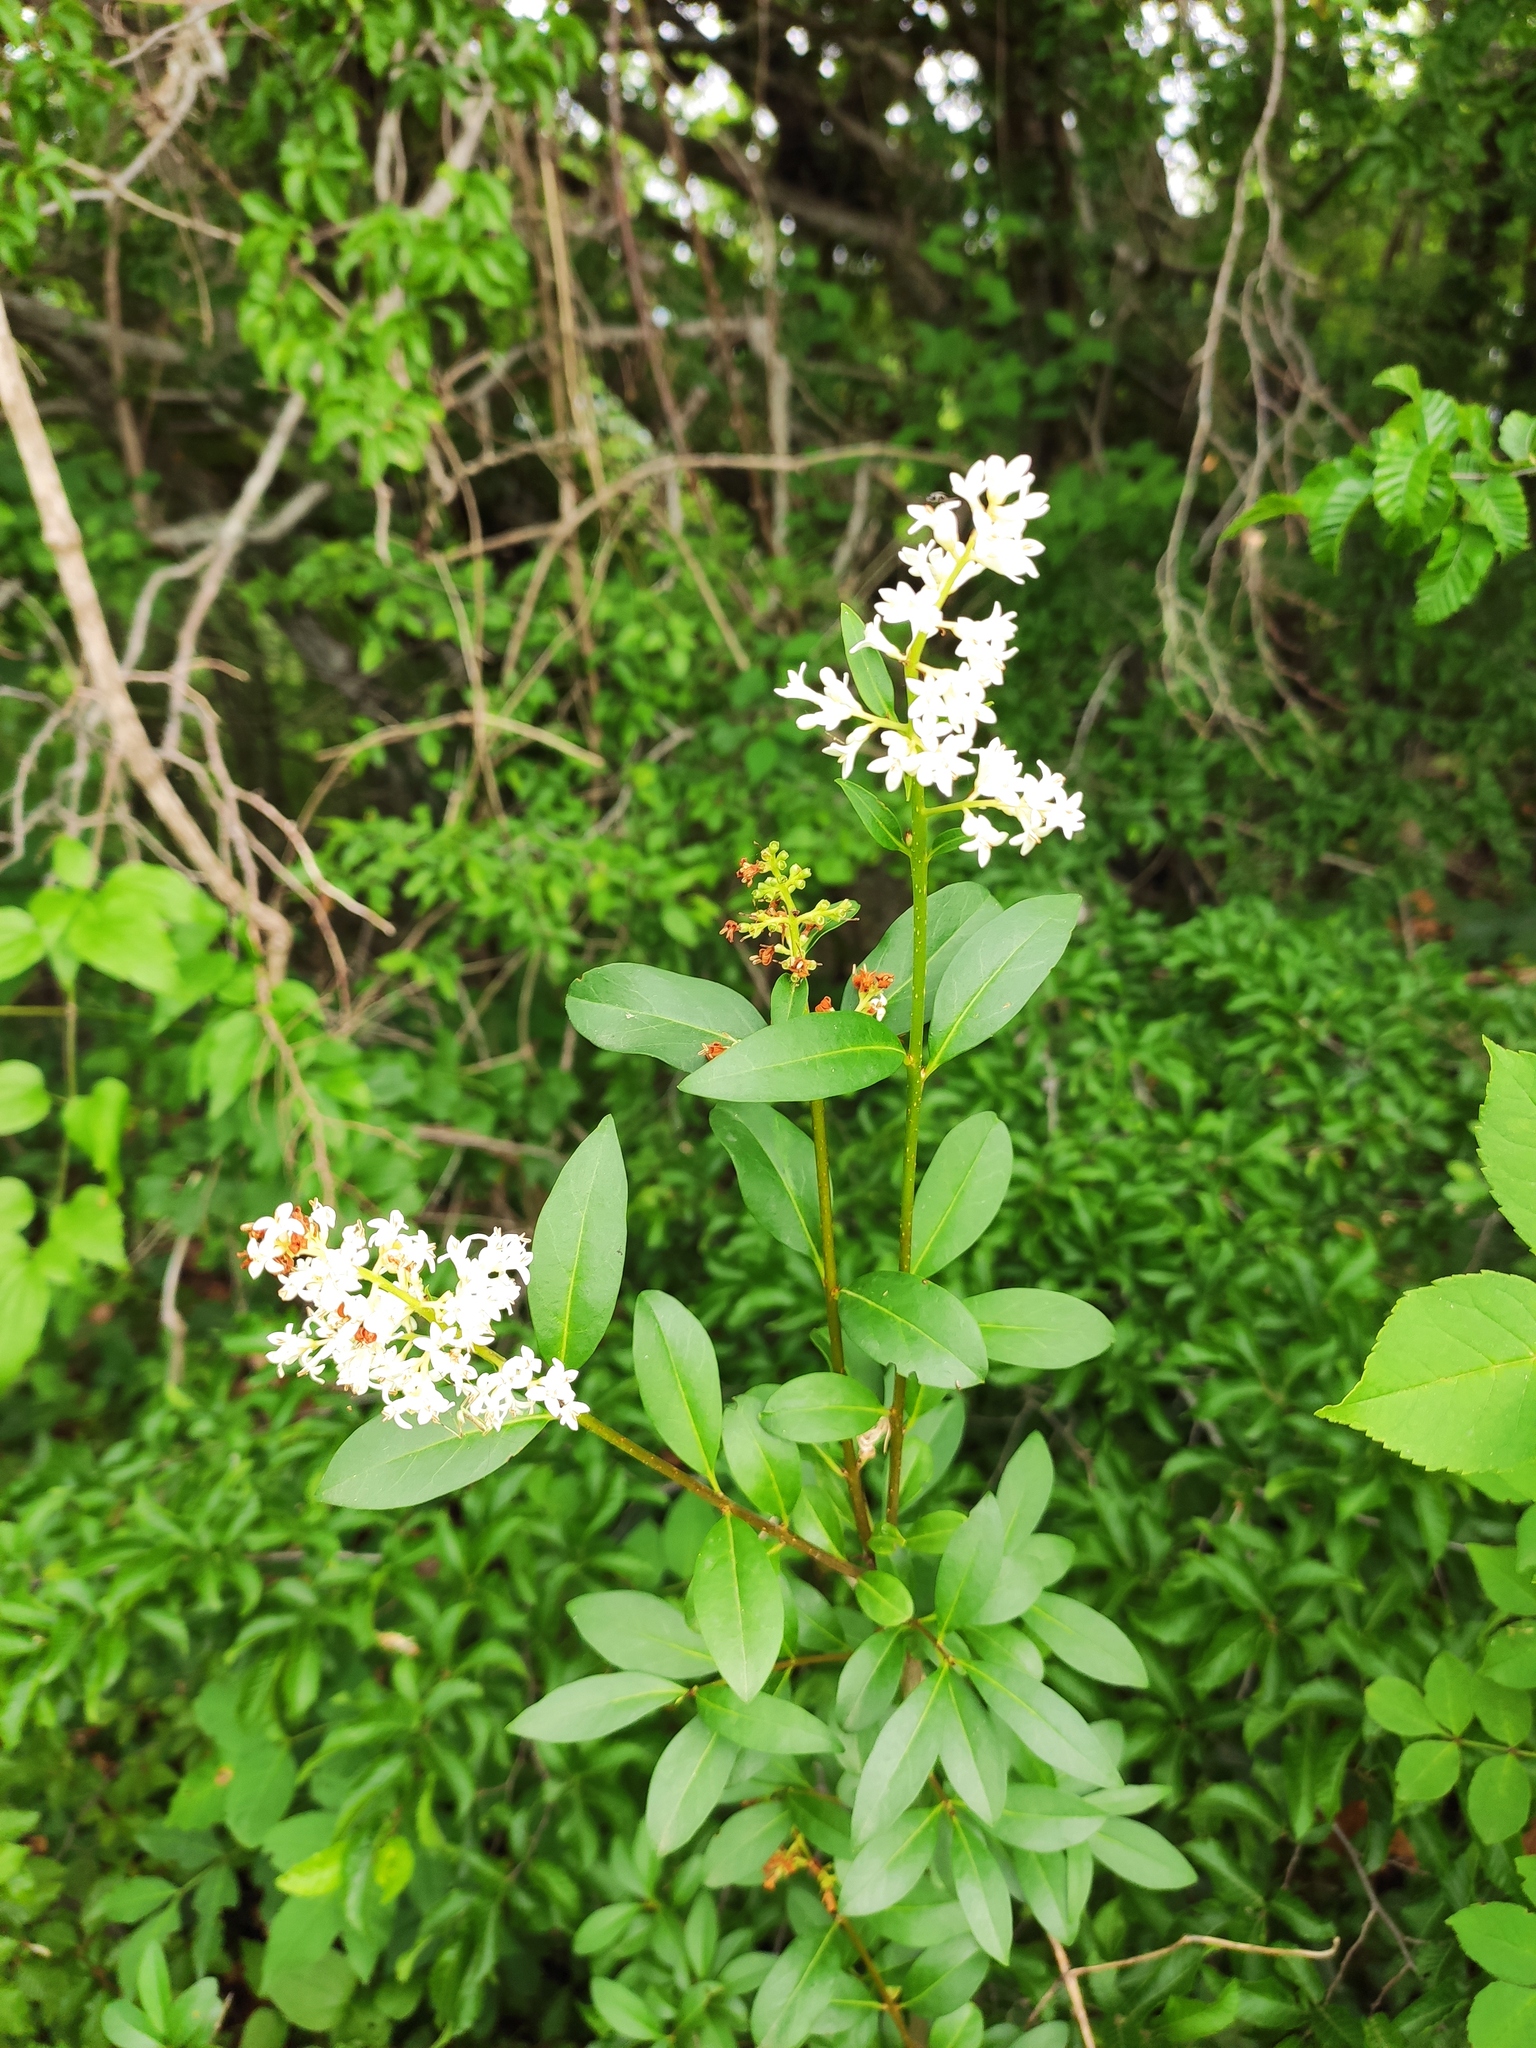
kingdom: Plantae
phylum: Tracheophyta
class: Magnoliopsida
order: Lamiales
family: Oleaceae
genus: Ligustrum
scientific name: Ligustrum vulgare
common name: Wild privet
